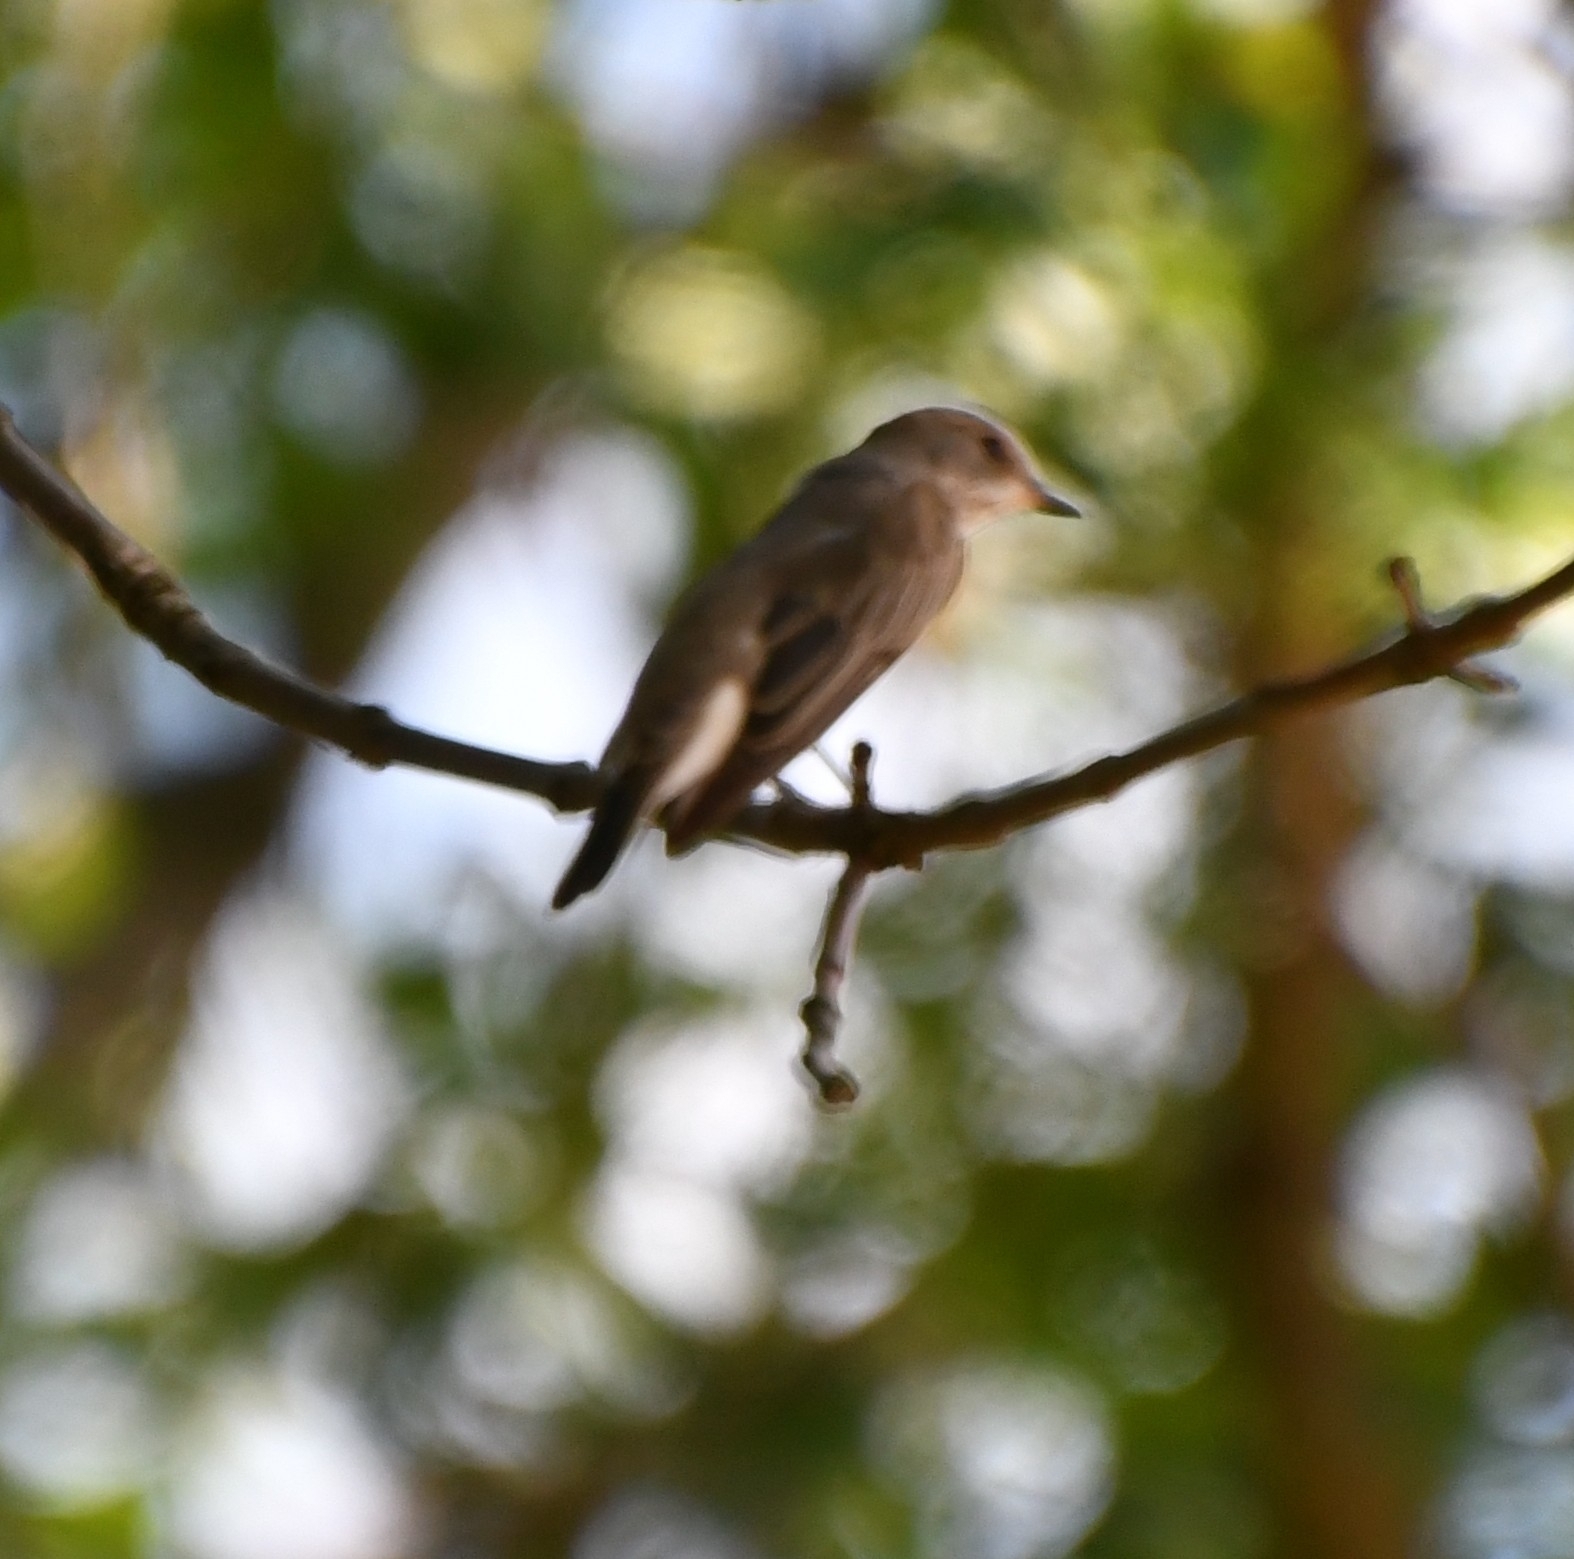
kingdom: Animalia
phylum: Chordata
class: Aves
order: Passeriformes
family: Muscicapidae
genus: Muscicapa
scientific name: Muscicapa striata
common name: Spotted flycatcher
